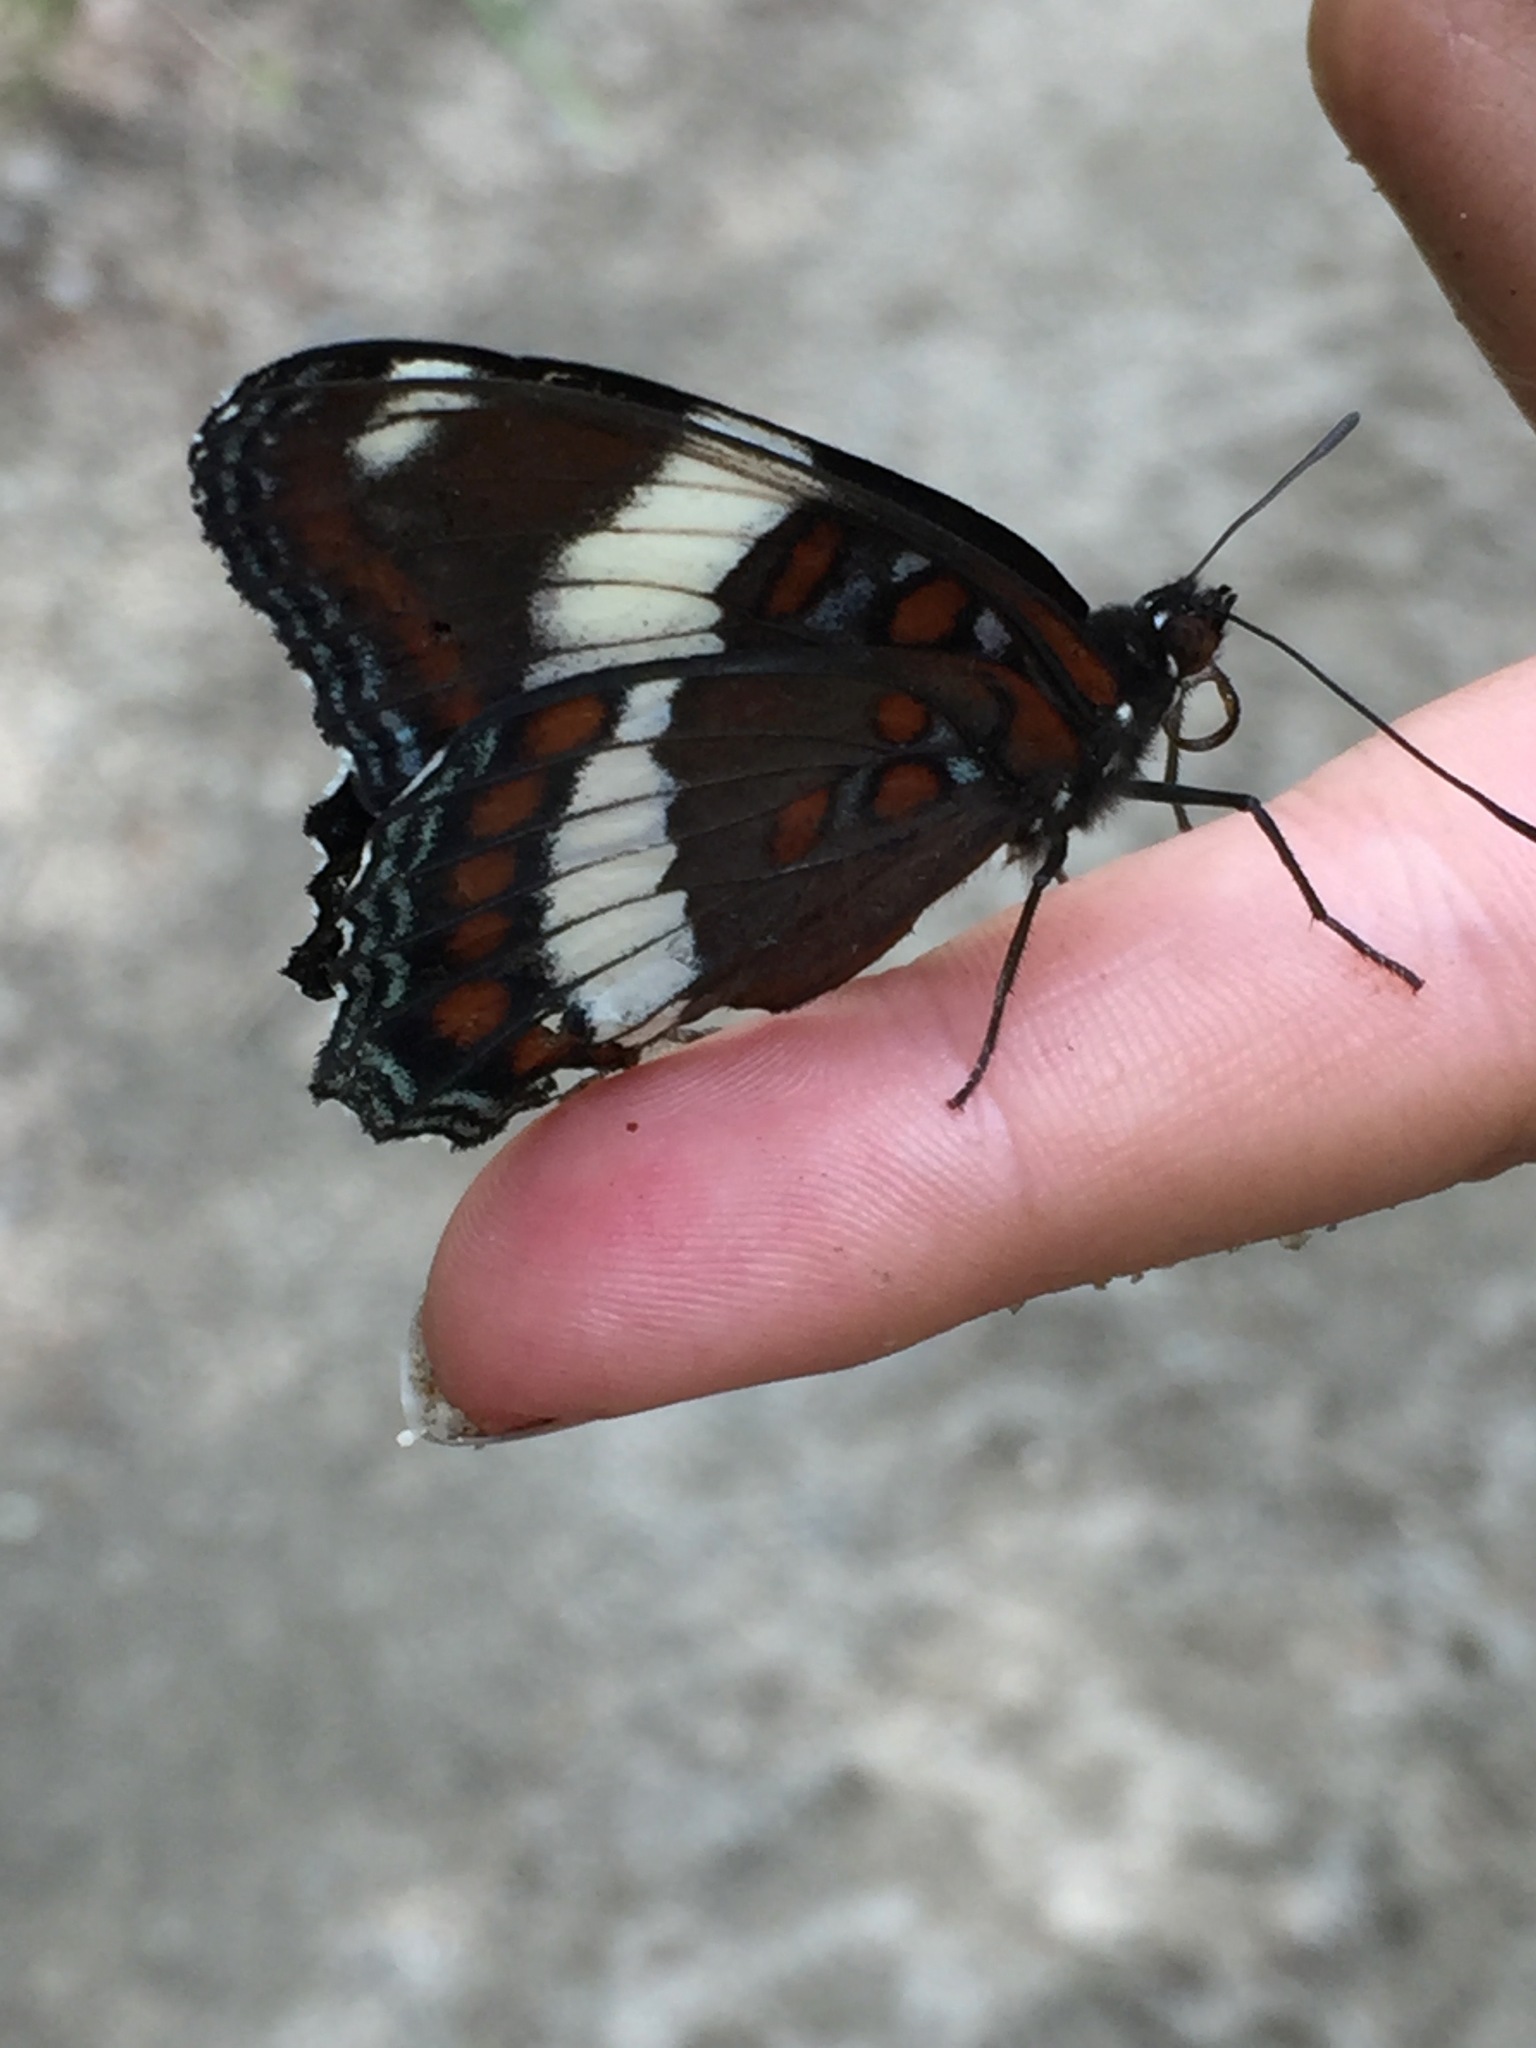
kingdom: Animalia
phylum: Arthropoda
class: Insecta
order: Lepidoptera
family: Nymphalidae
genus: Limenitis
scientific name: Limenitis arthemis
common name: Red-spotted admiral
